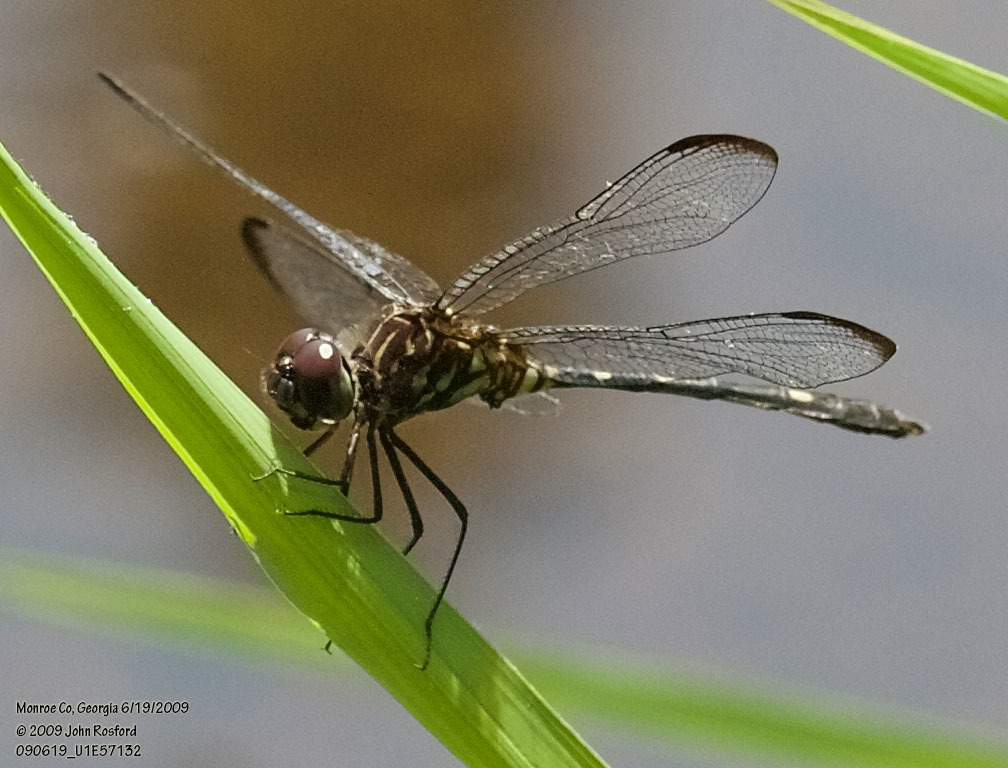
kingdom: Animalia
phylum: Arthropoda
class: Insecta
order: Odonata
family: Libellulidae
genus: Dythemis
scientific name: Dythemis velox
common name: Swift setwing
